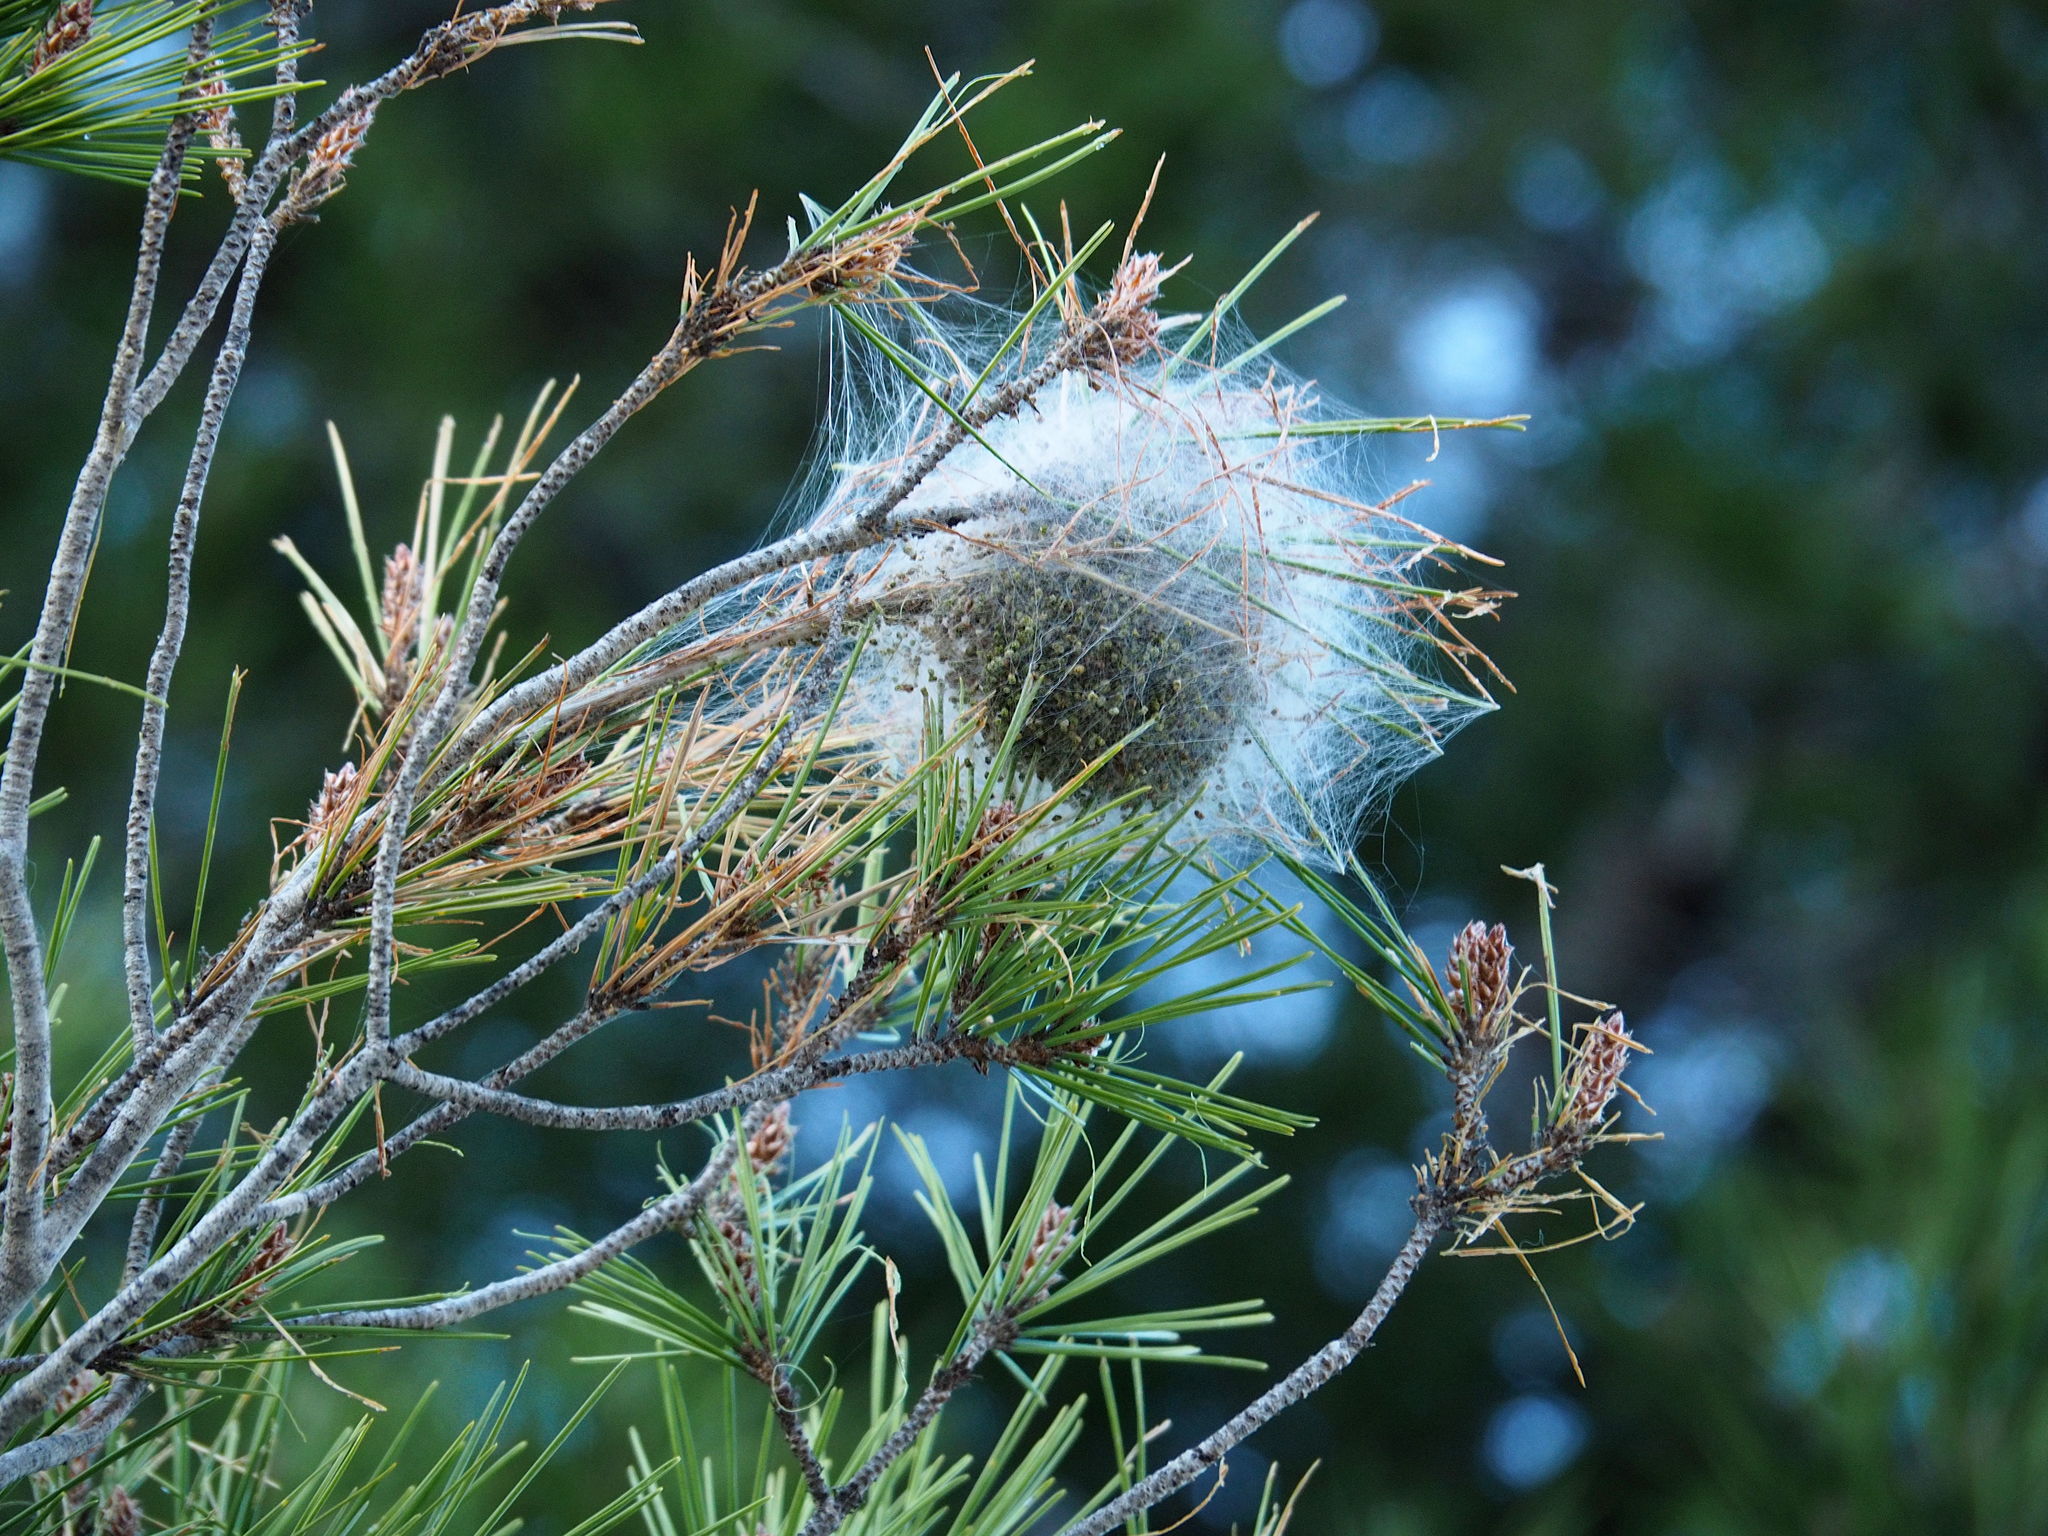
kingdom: Animalia
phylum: Arthropoda
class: Insecta
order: Lepidoptera
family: Notodontidae
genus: Thaumetopoea
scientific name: Thaumetopoea pityocampa
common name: Pine processionary
